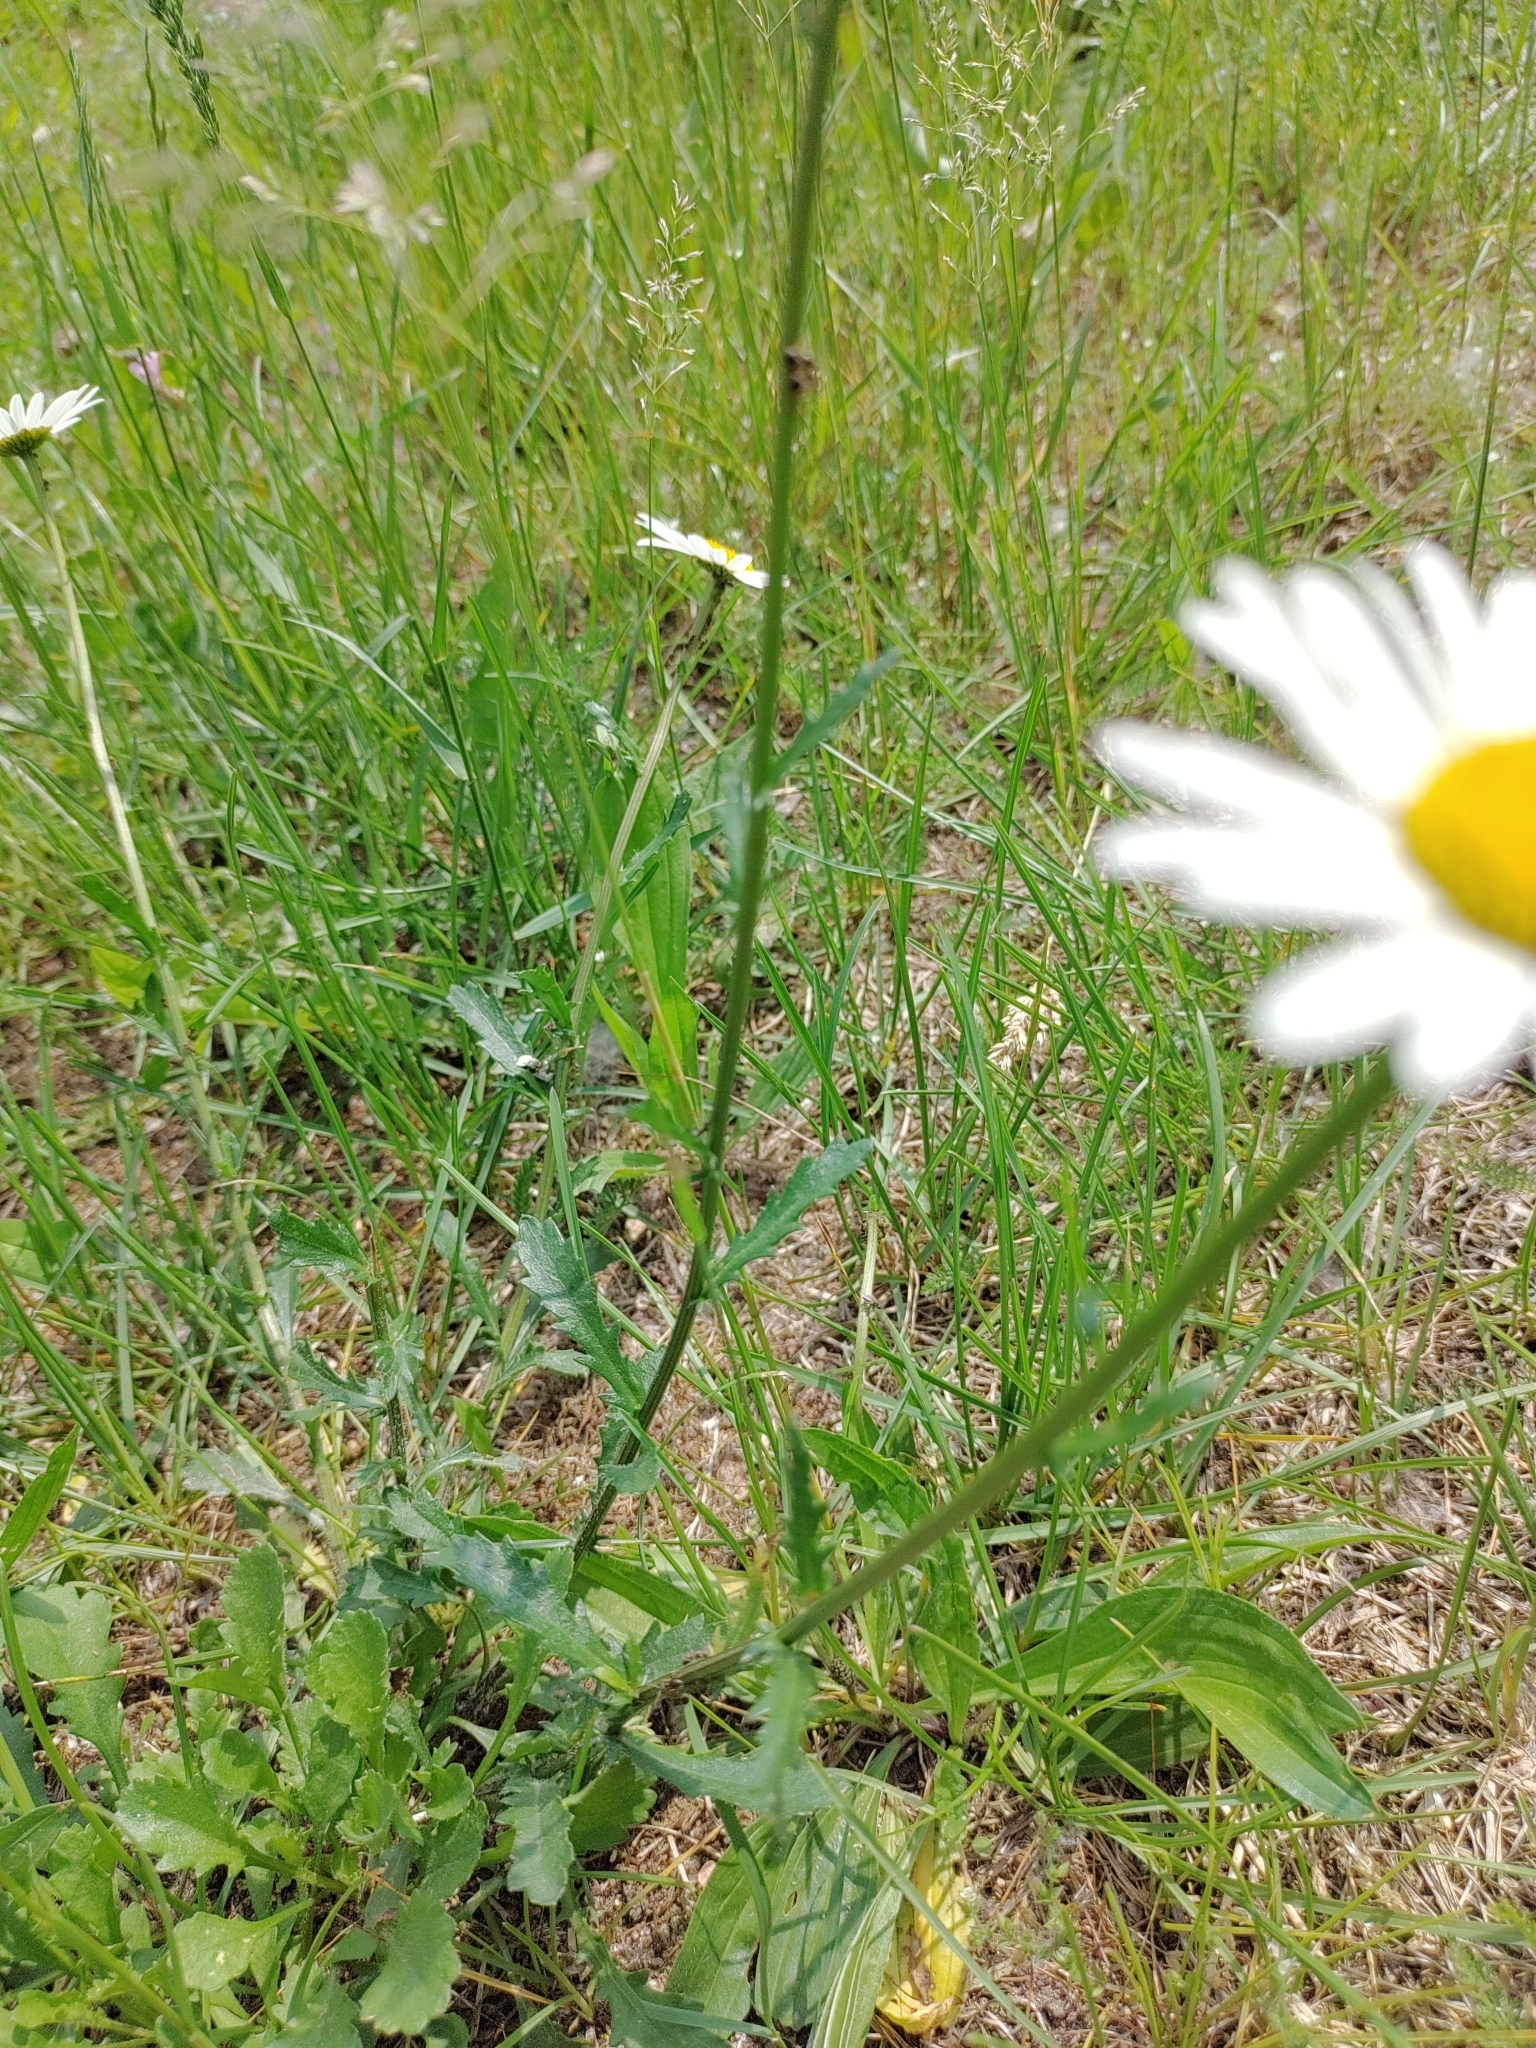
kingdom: Plantae
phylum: Tracheophyta
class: Magnoliopsida
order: Asterales
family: Asteraceae
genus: Leucanthemum
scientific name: Leucanthemum vulgare
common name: Oxeye daisy
